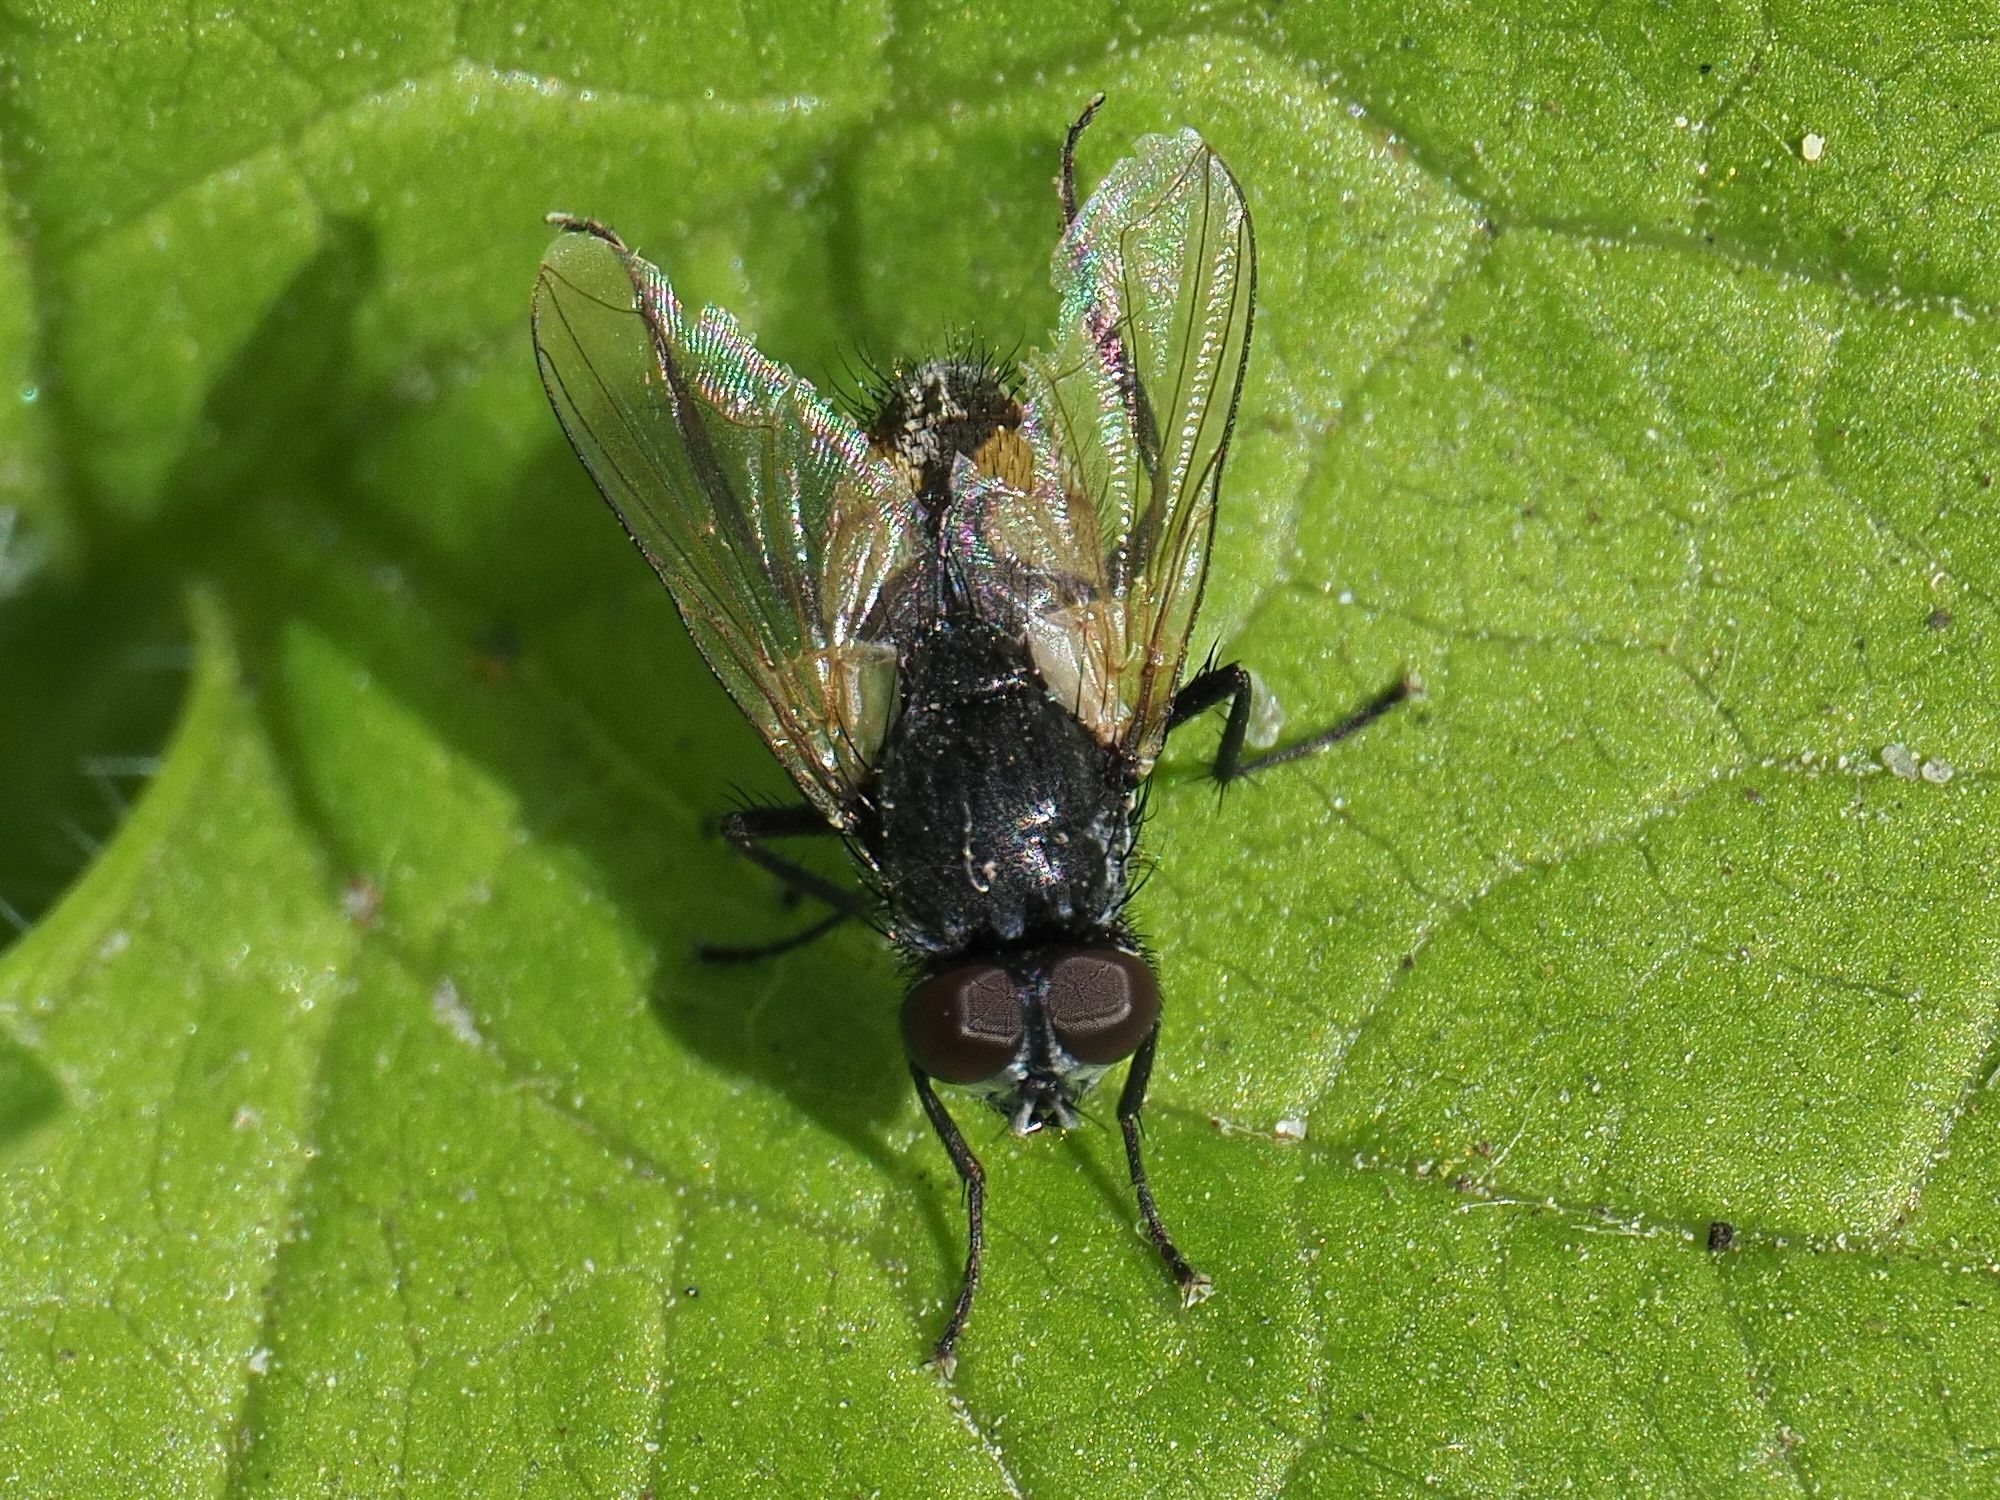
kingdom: Animalia
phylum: Arthropoda
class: Insecta
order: Diptera
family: Muscidae
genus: Musca
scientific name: Musca autumnalis
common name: Face fly
